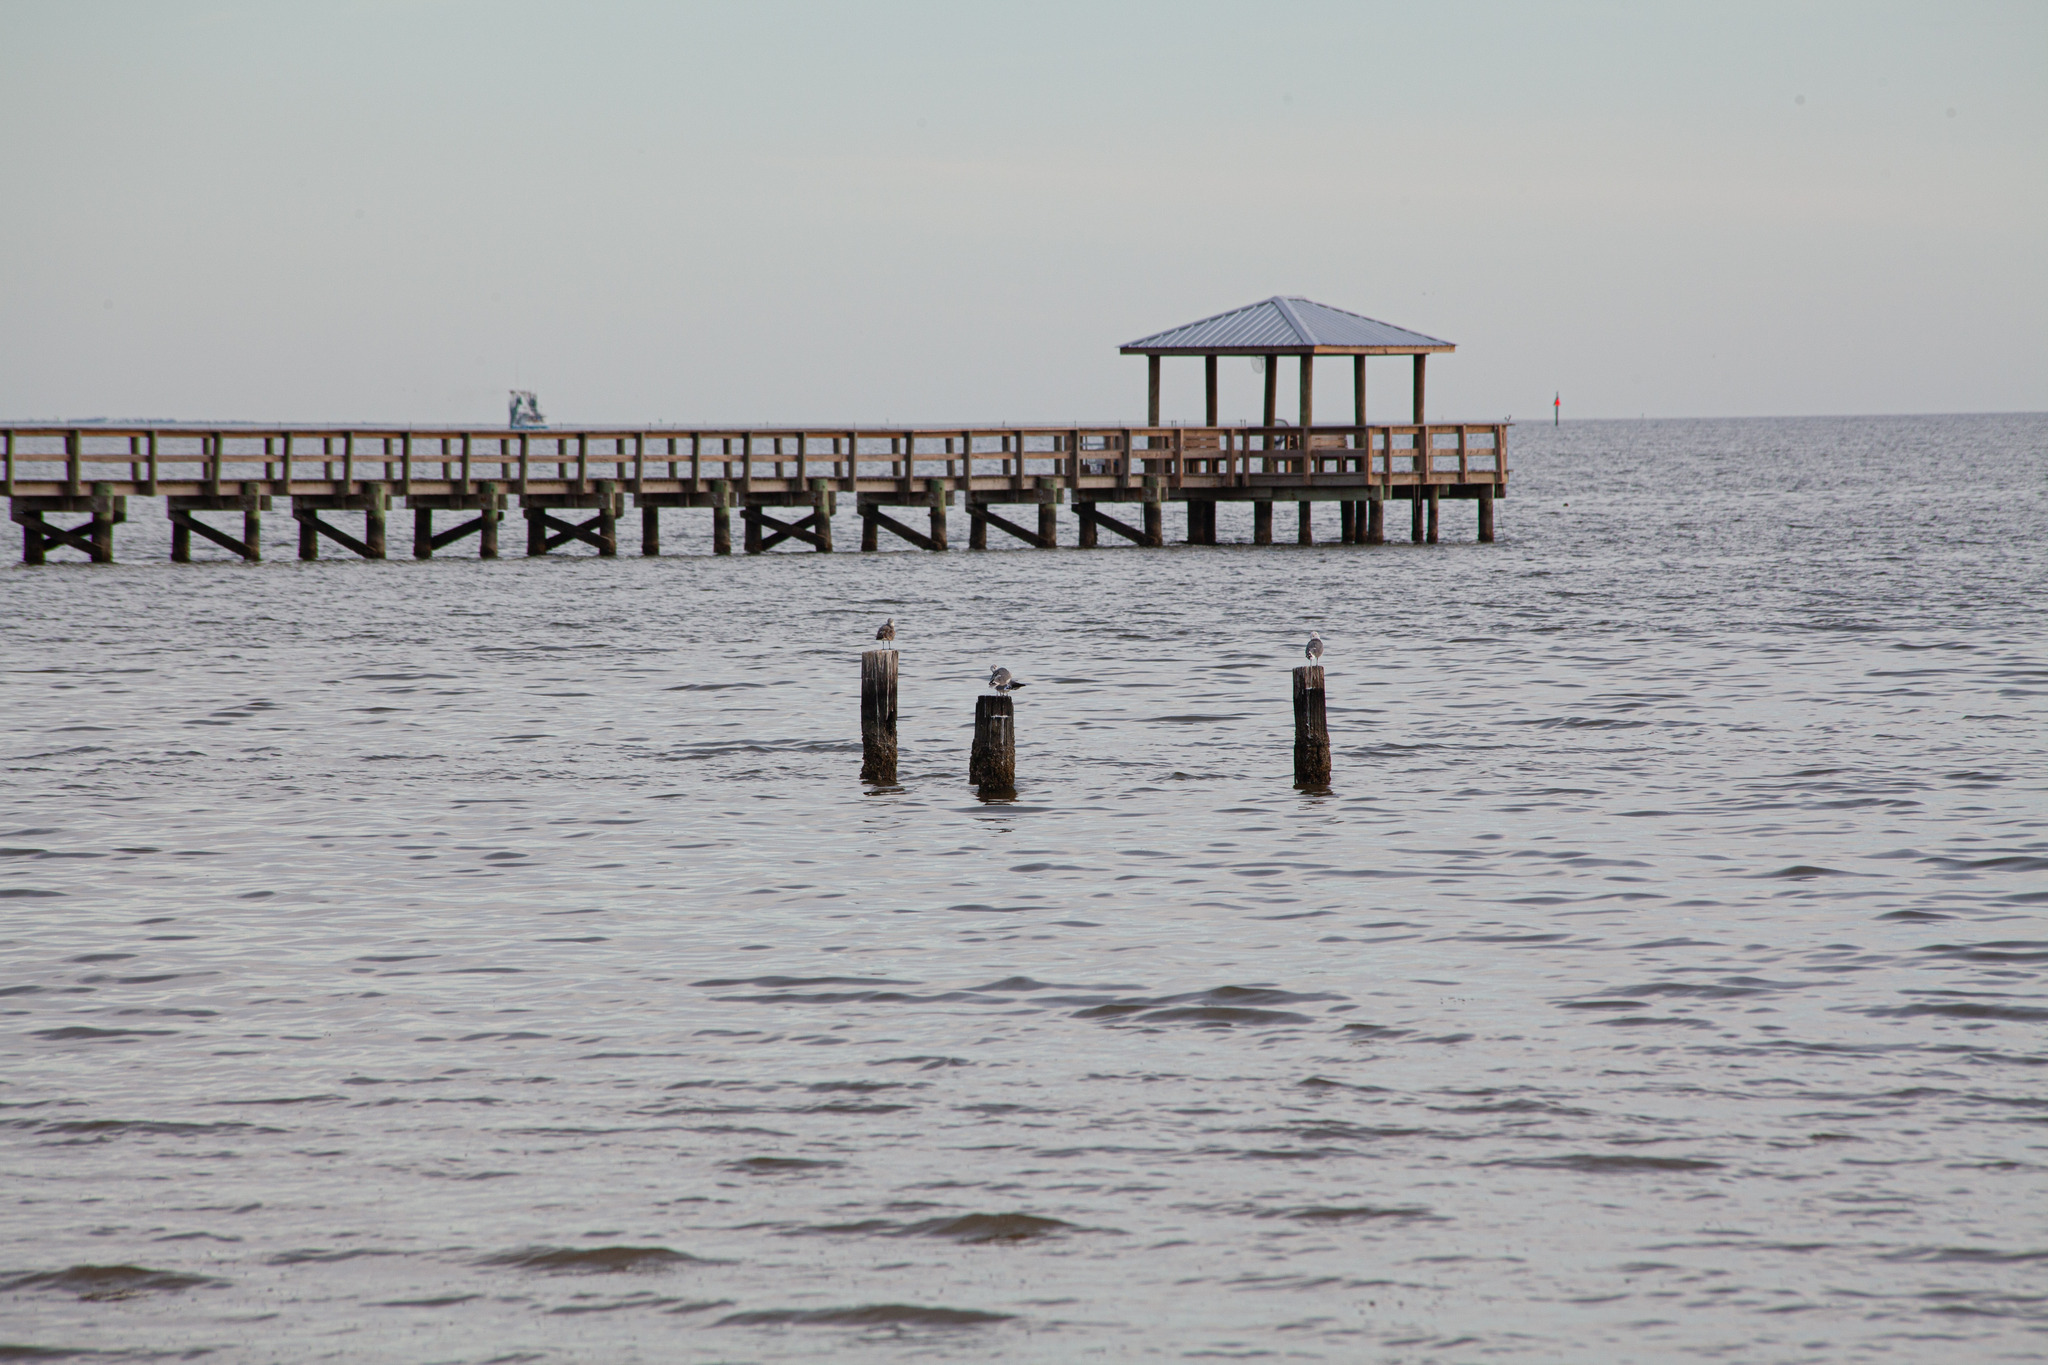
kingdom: Animalia
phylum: Chordata
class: Aves
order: Charadriiformes
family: Laridae
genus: Leucophaeus
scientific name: Leucophaeus atricilla
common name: Laughing gull
